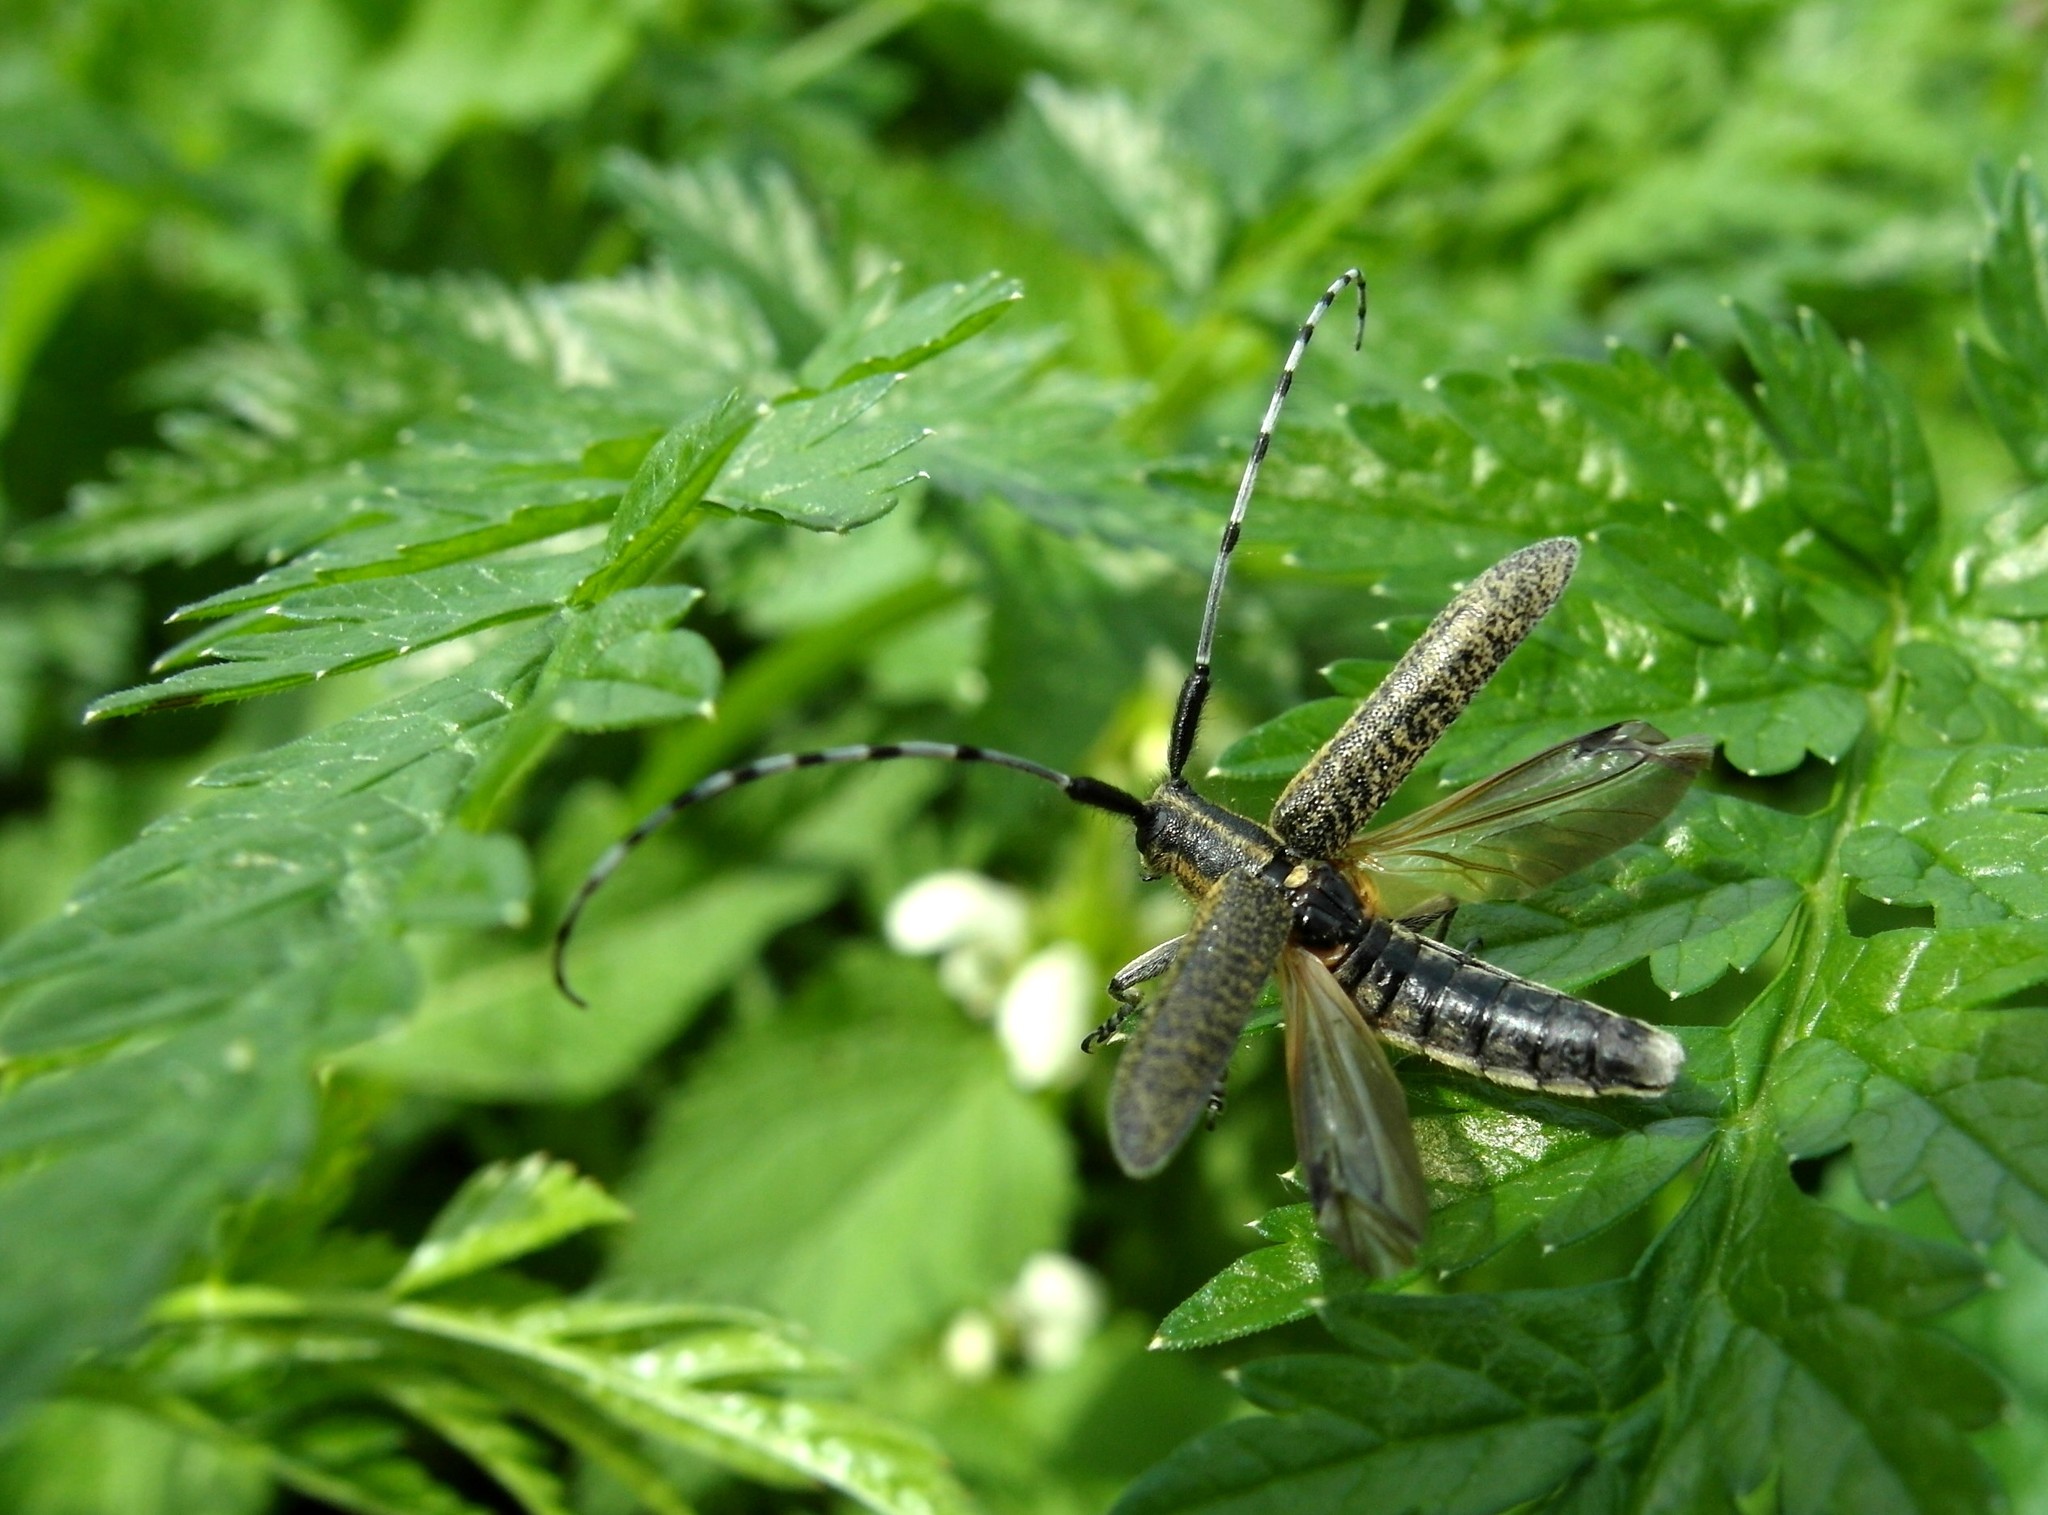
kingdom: Animalia
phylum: Arthropoda
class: Insecta
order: Coleoptera
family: Cerambycidae
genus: Agapanthia
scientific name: Agapanthia villosoviridescens
